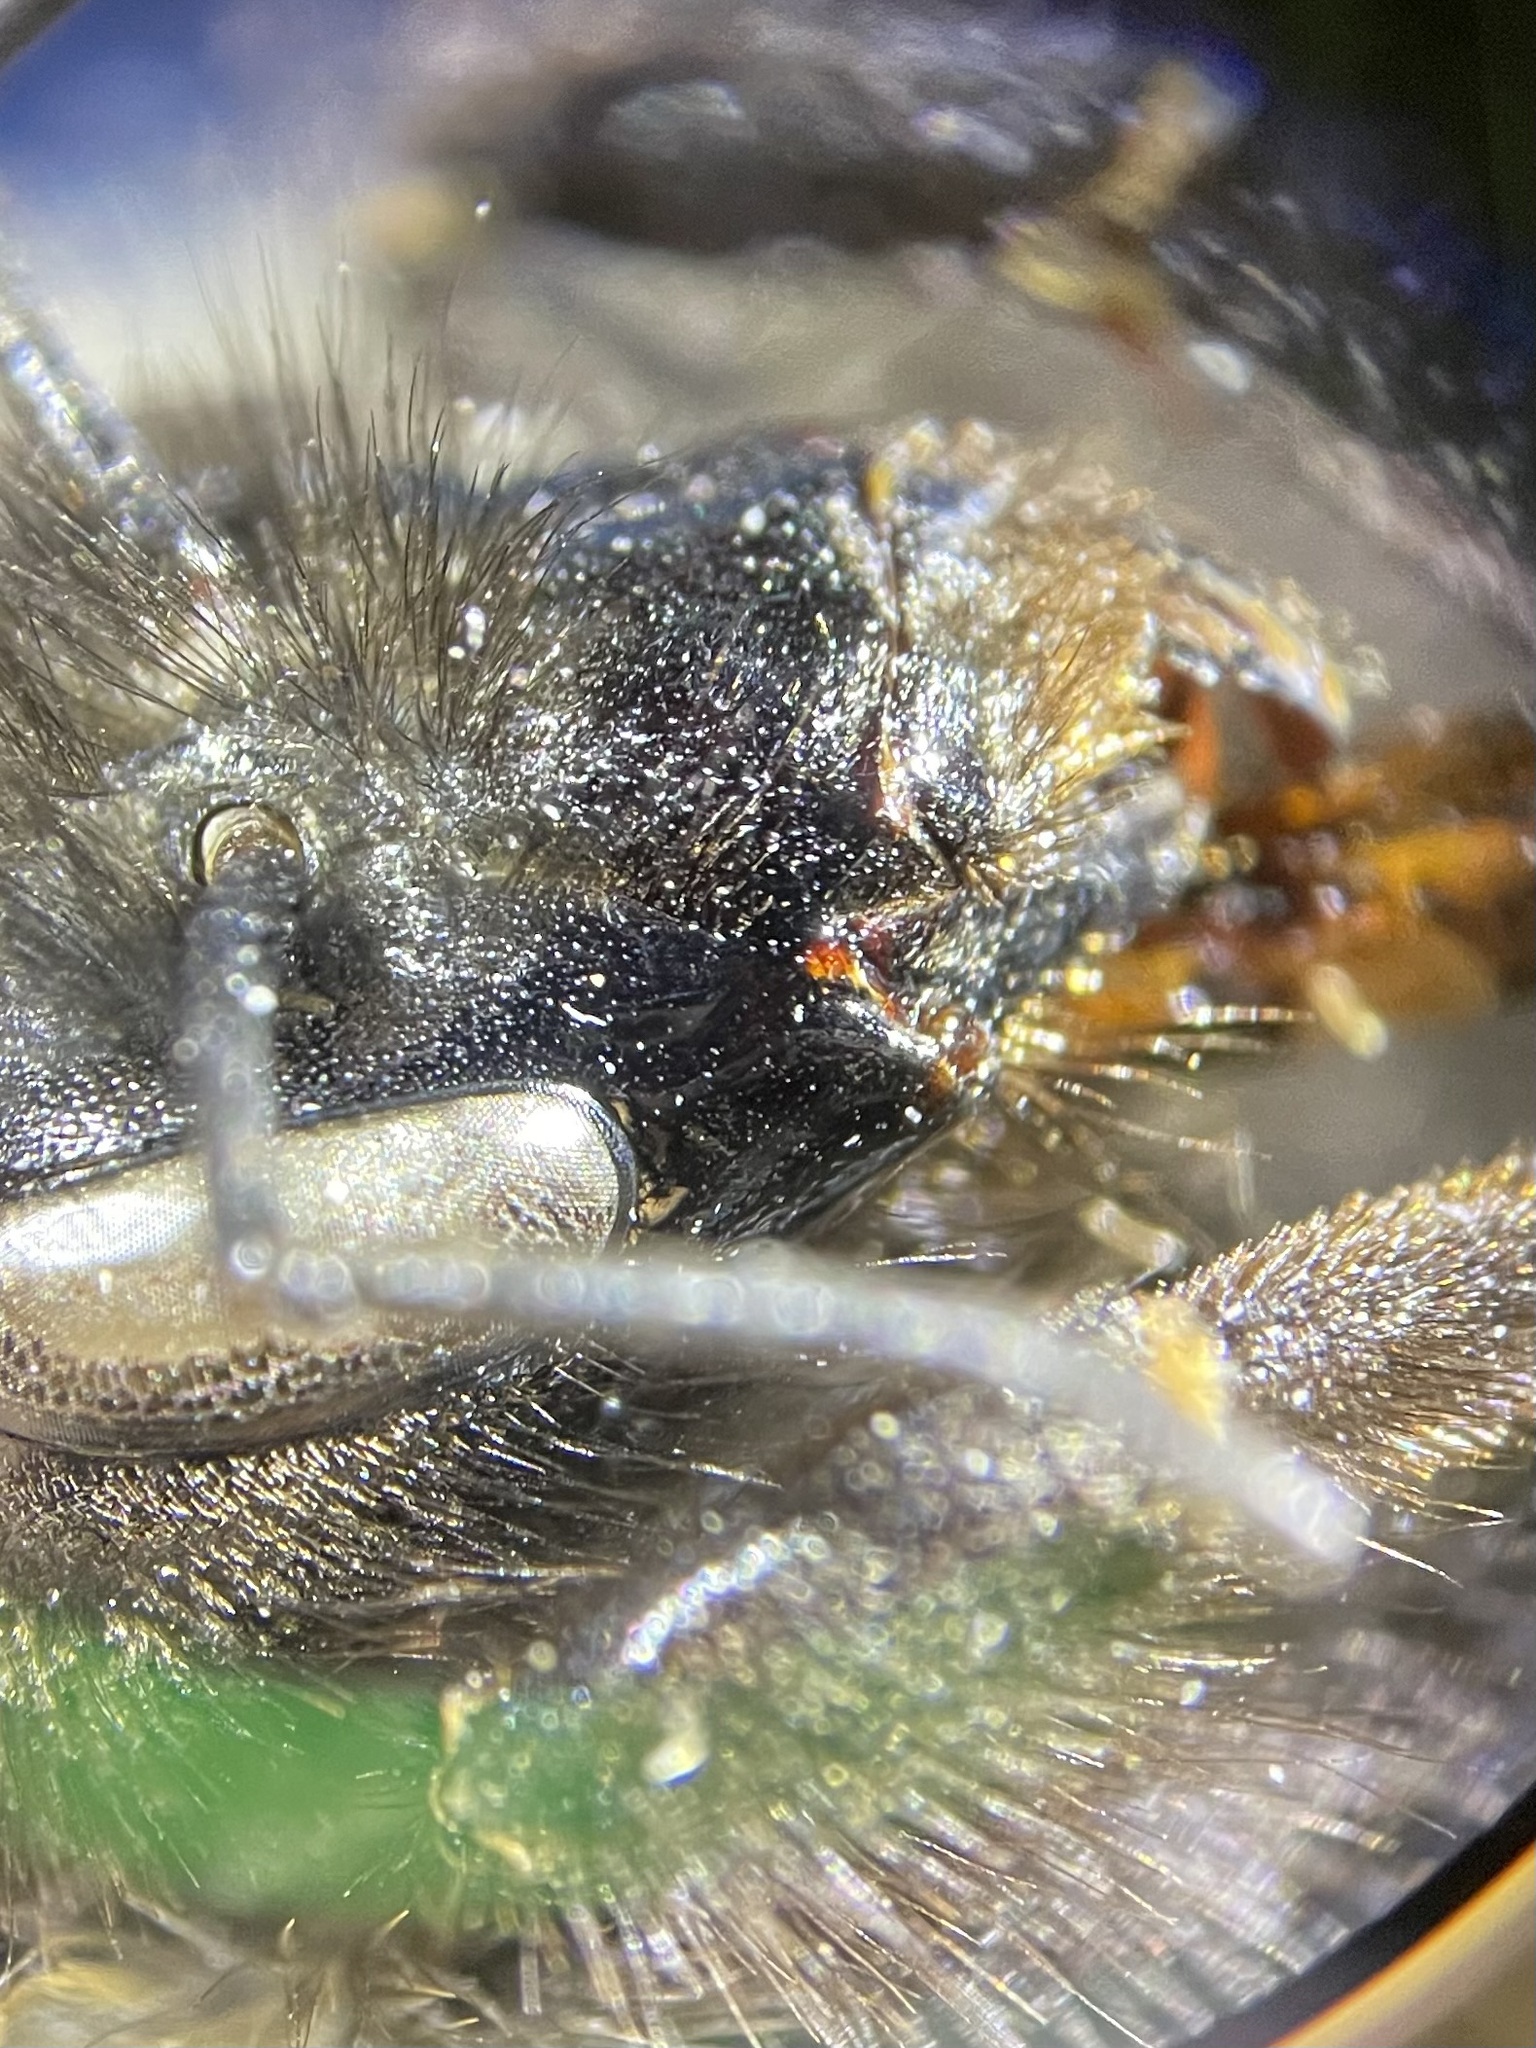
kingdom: Animalia
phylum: Arthropoda
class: Insecta
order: Hymenoptera
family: Apidae
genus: Bombus
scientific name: Bombus kluanensis
